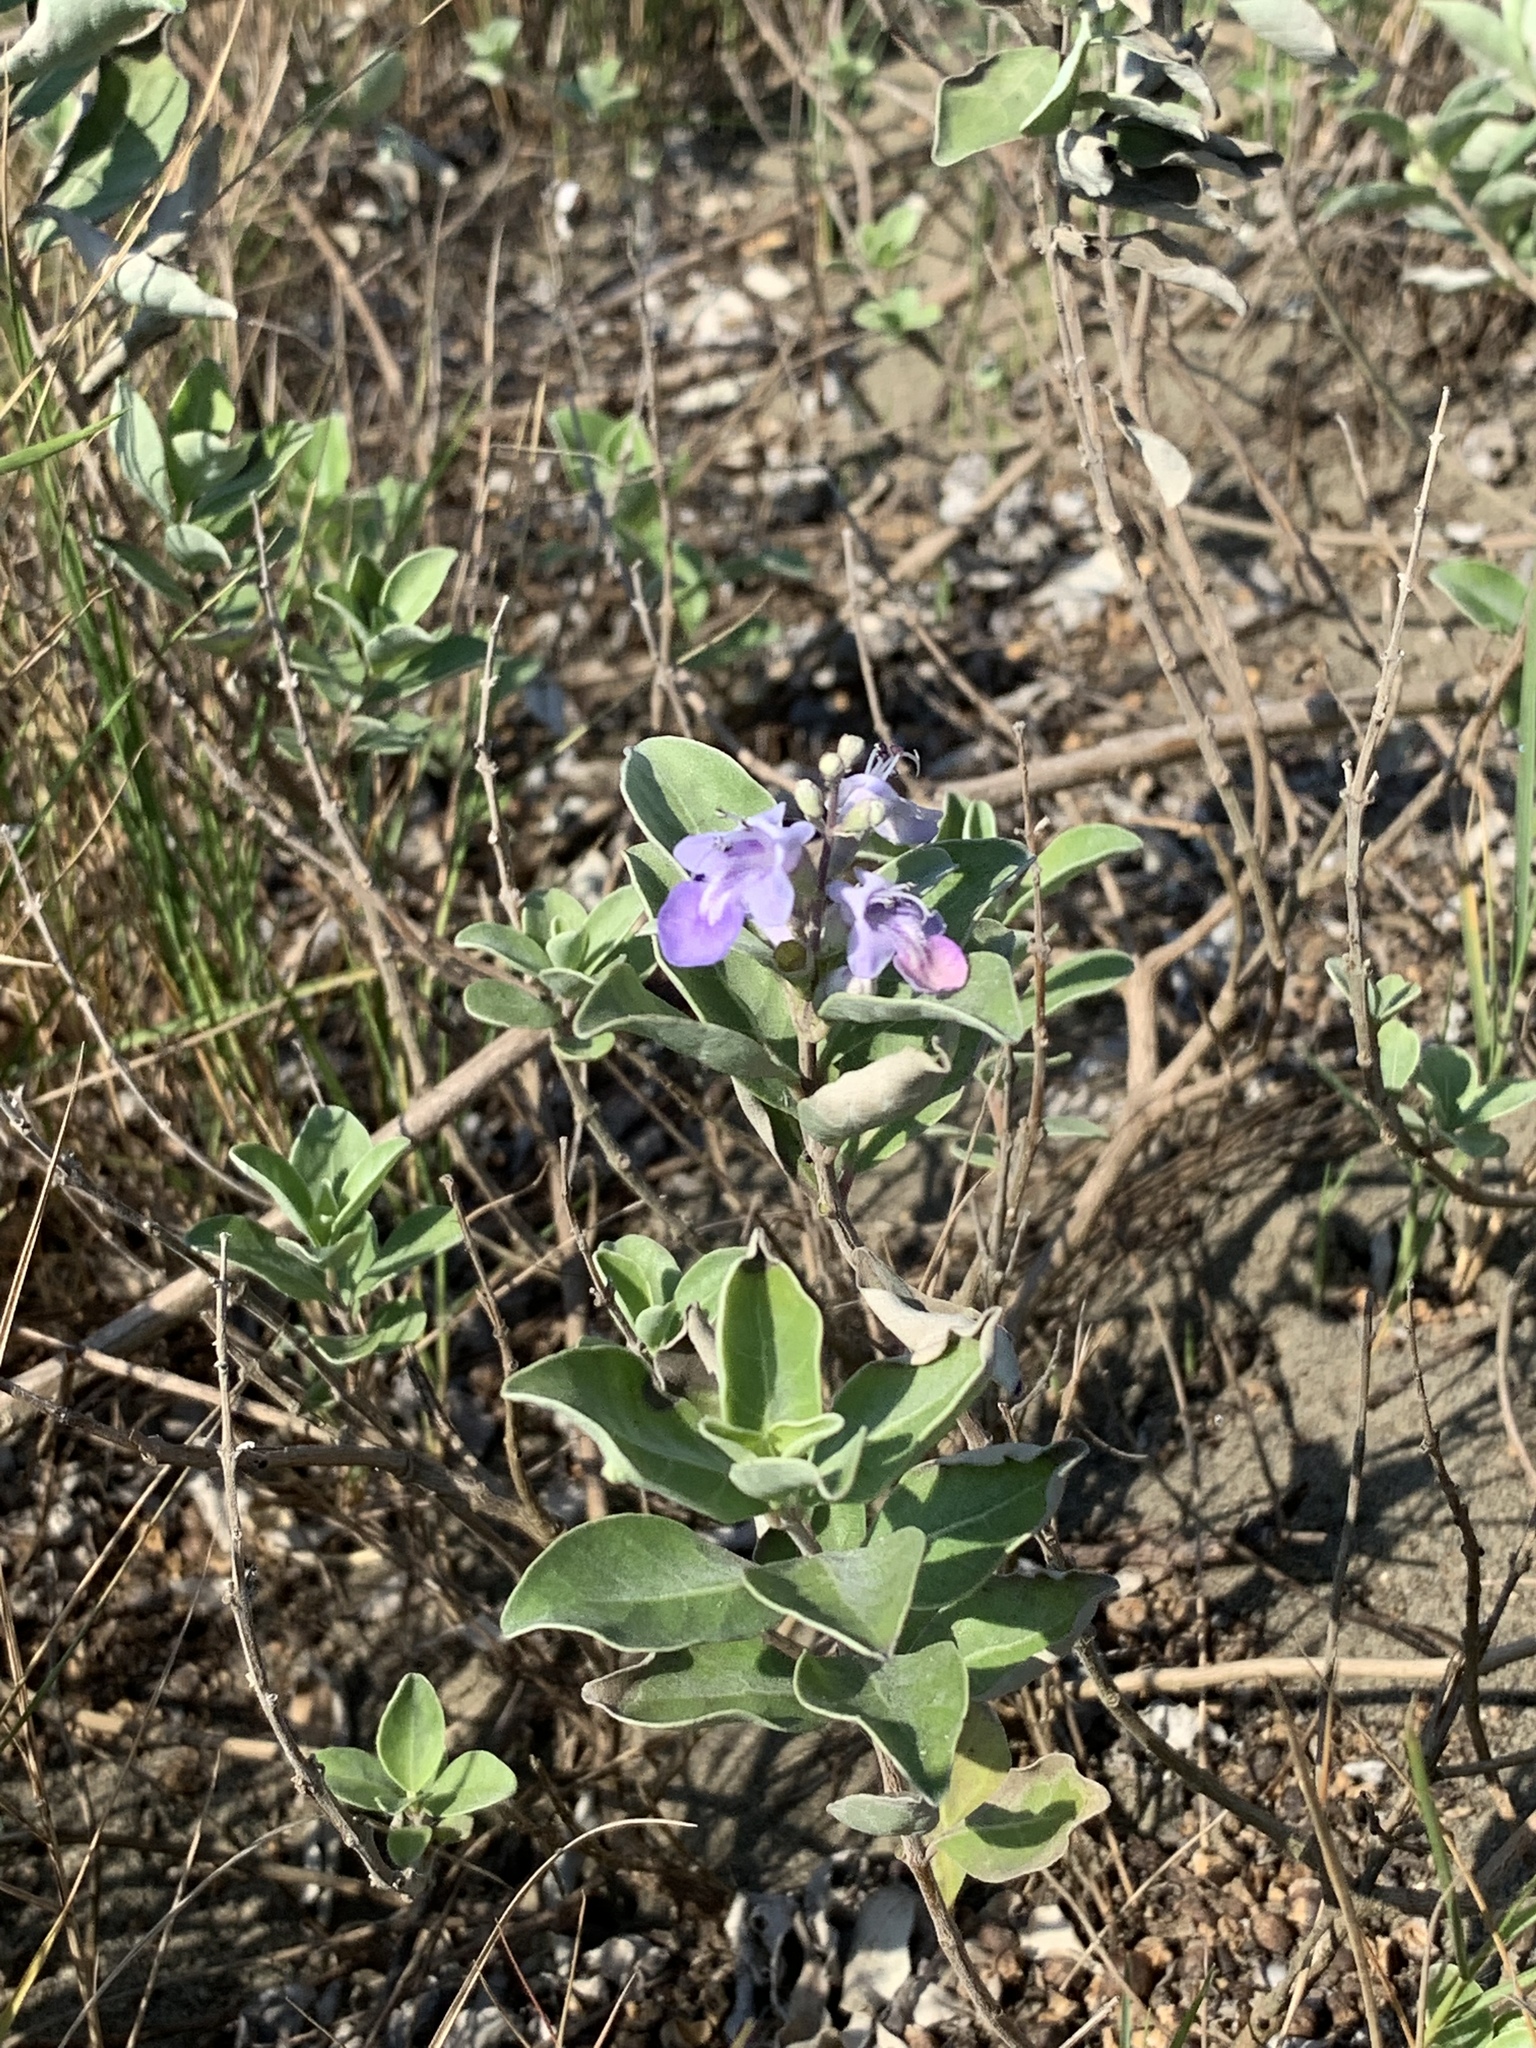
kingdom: Plantae
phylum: Tracheophyta
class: Magnoliopsida
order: Lamiales
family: Lamiaceae
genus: Vitex
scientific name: Vitex rotundifolia
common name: Beach vitex
